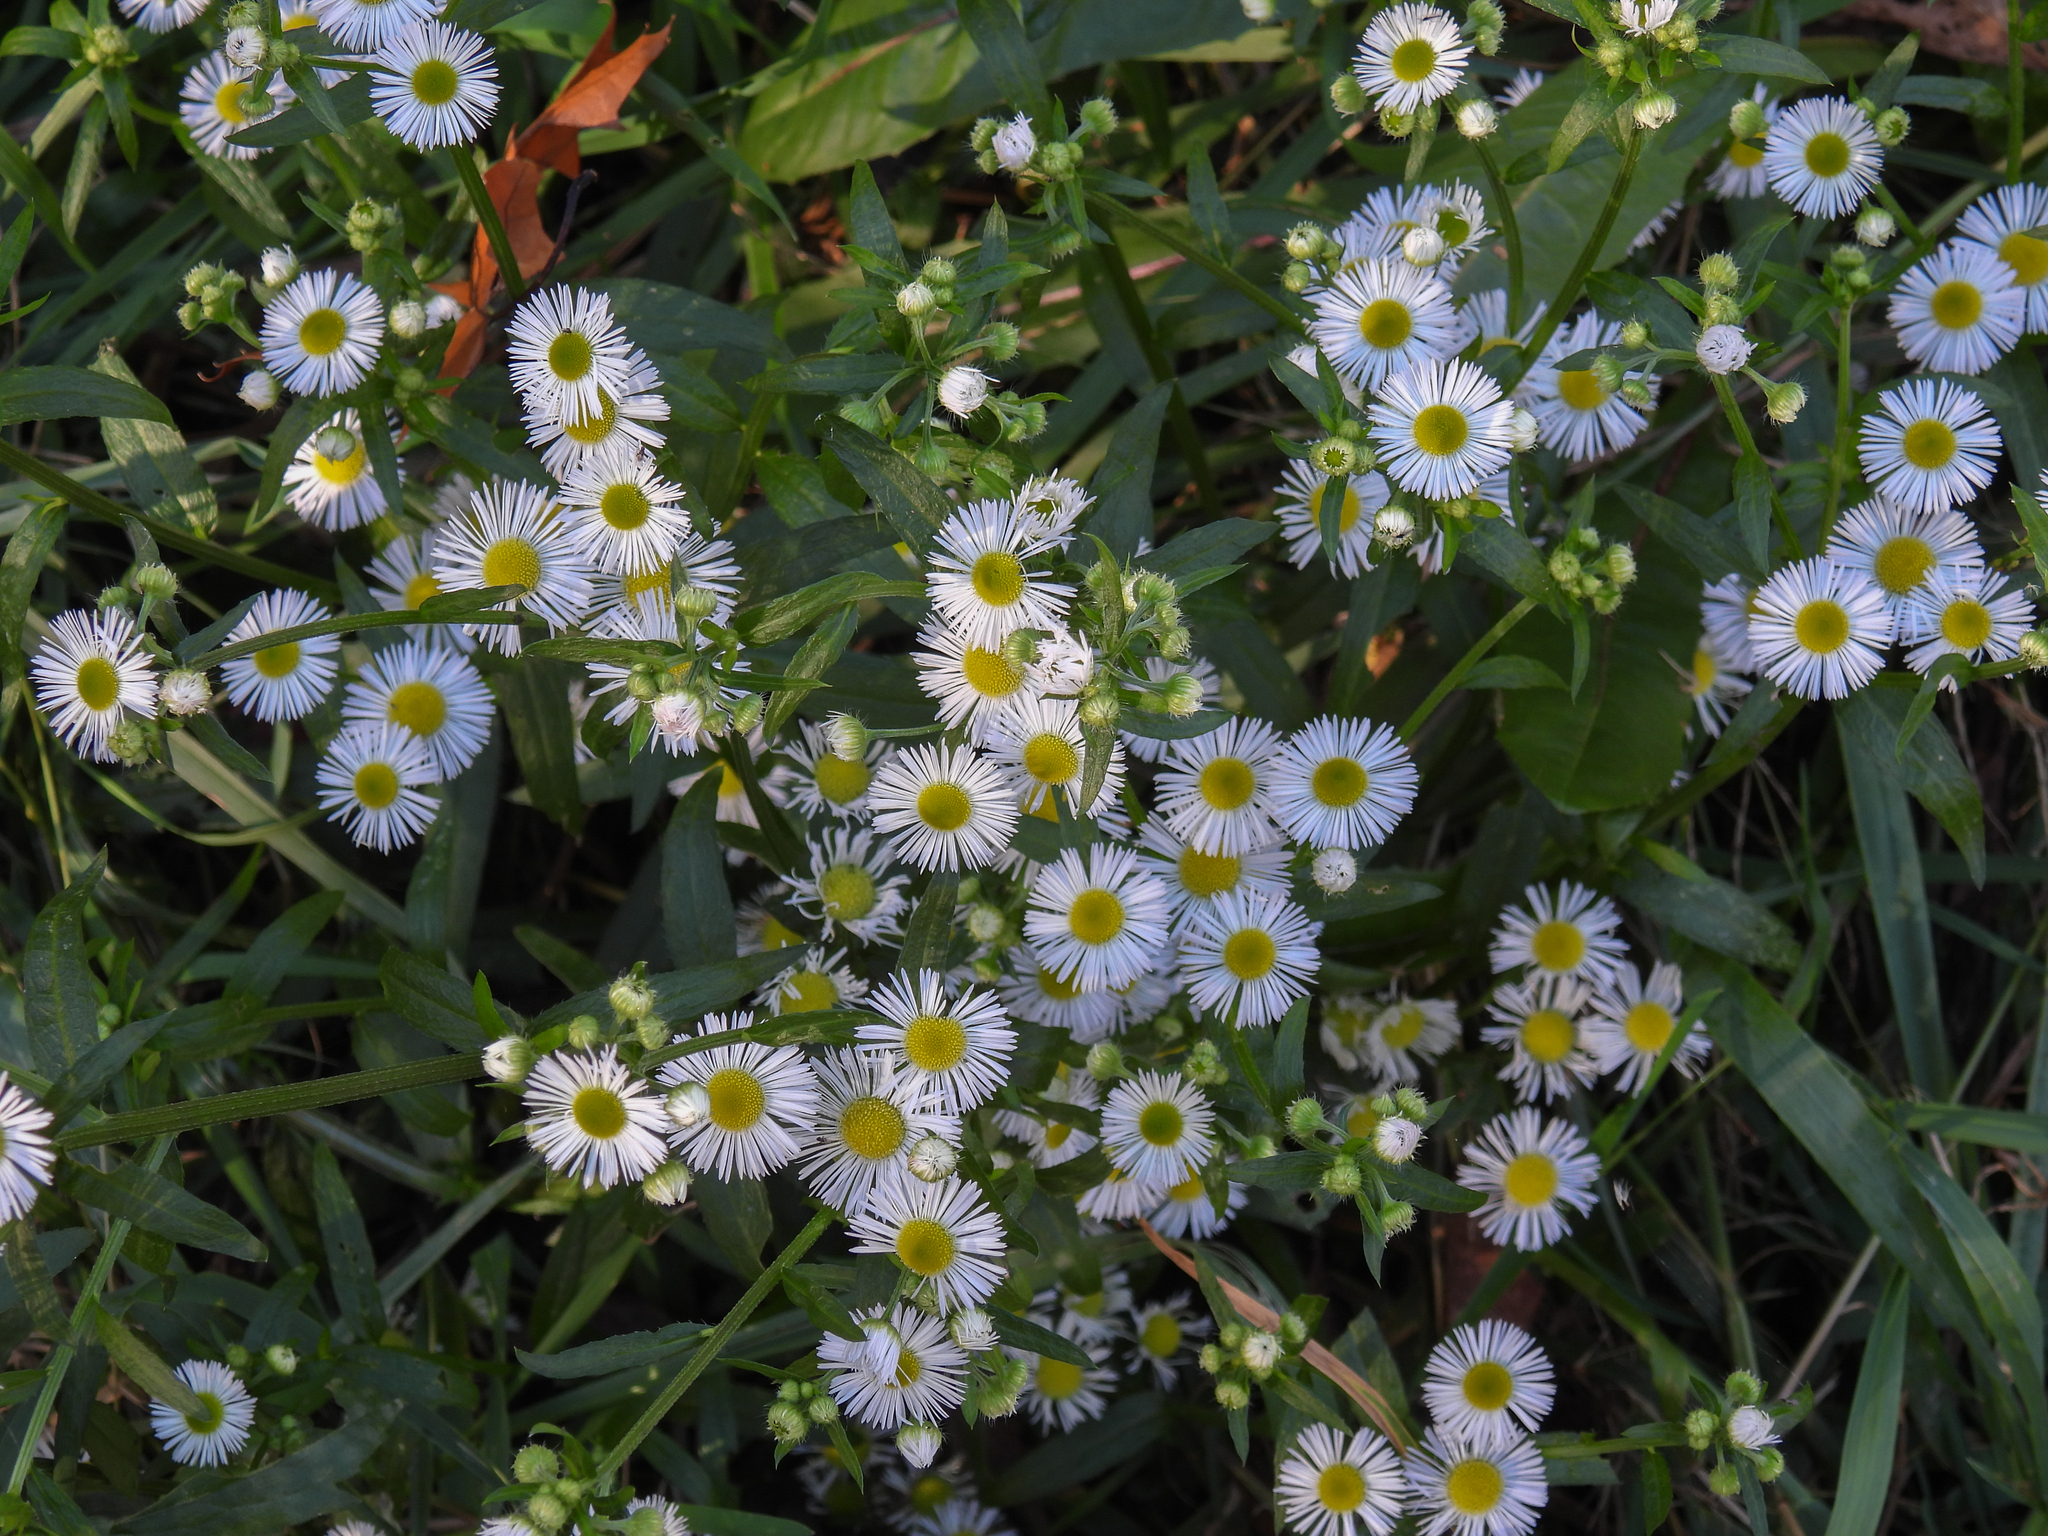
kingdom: Plantae
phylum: Tracheophyta
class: Magnoliopsida
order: Asterales
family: Asteraceae
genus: Erigeron
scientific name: Erigeron annuus
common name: Tall fleabane
